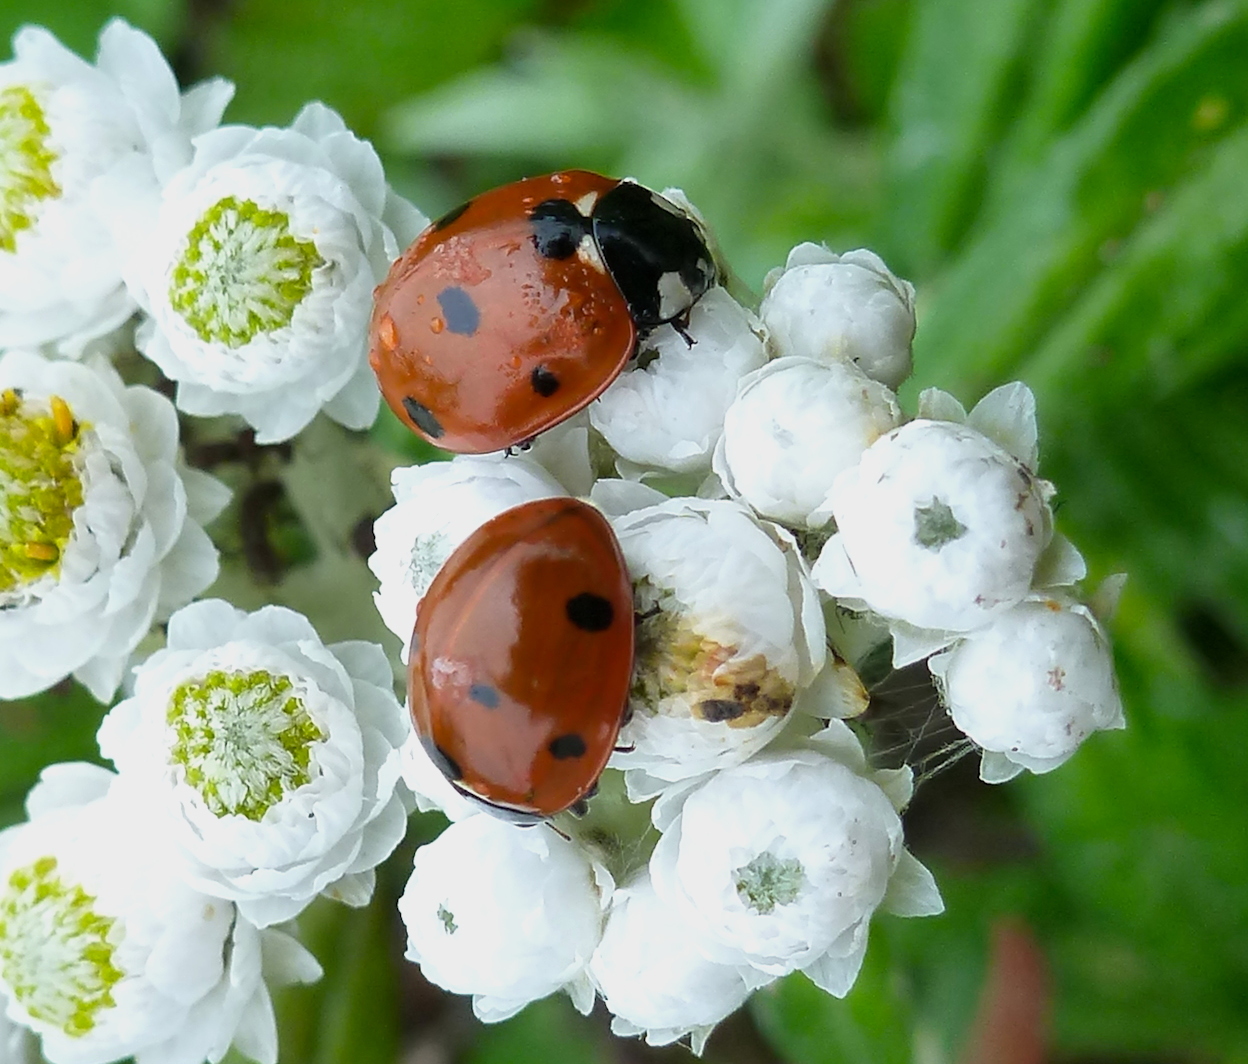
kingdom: Animalia
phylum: Arthropoda
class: Insecta
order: Coleoptera
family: Coccinellidae
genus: Coccinella
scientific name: Coccinella septempunctata
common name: Sevenspotted lady beetle
